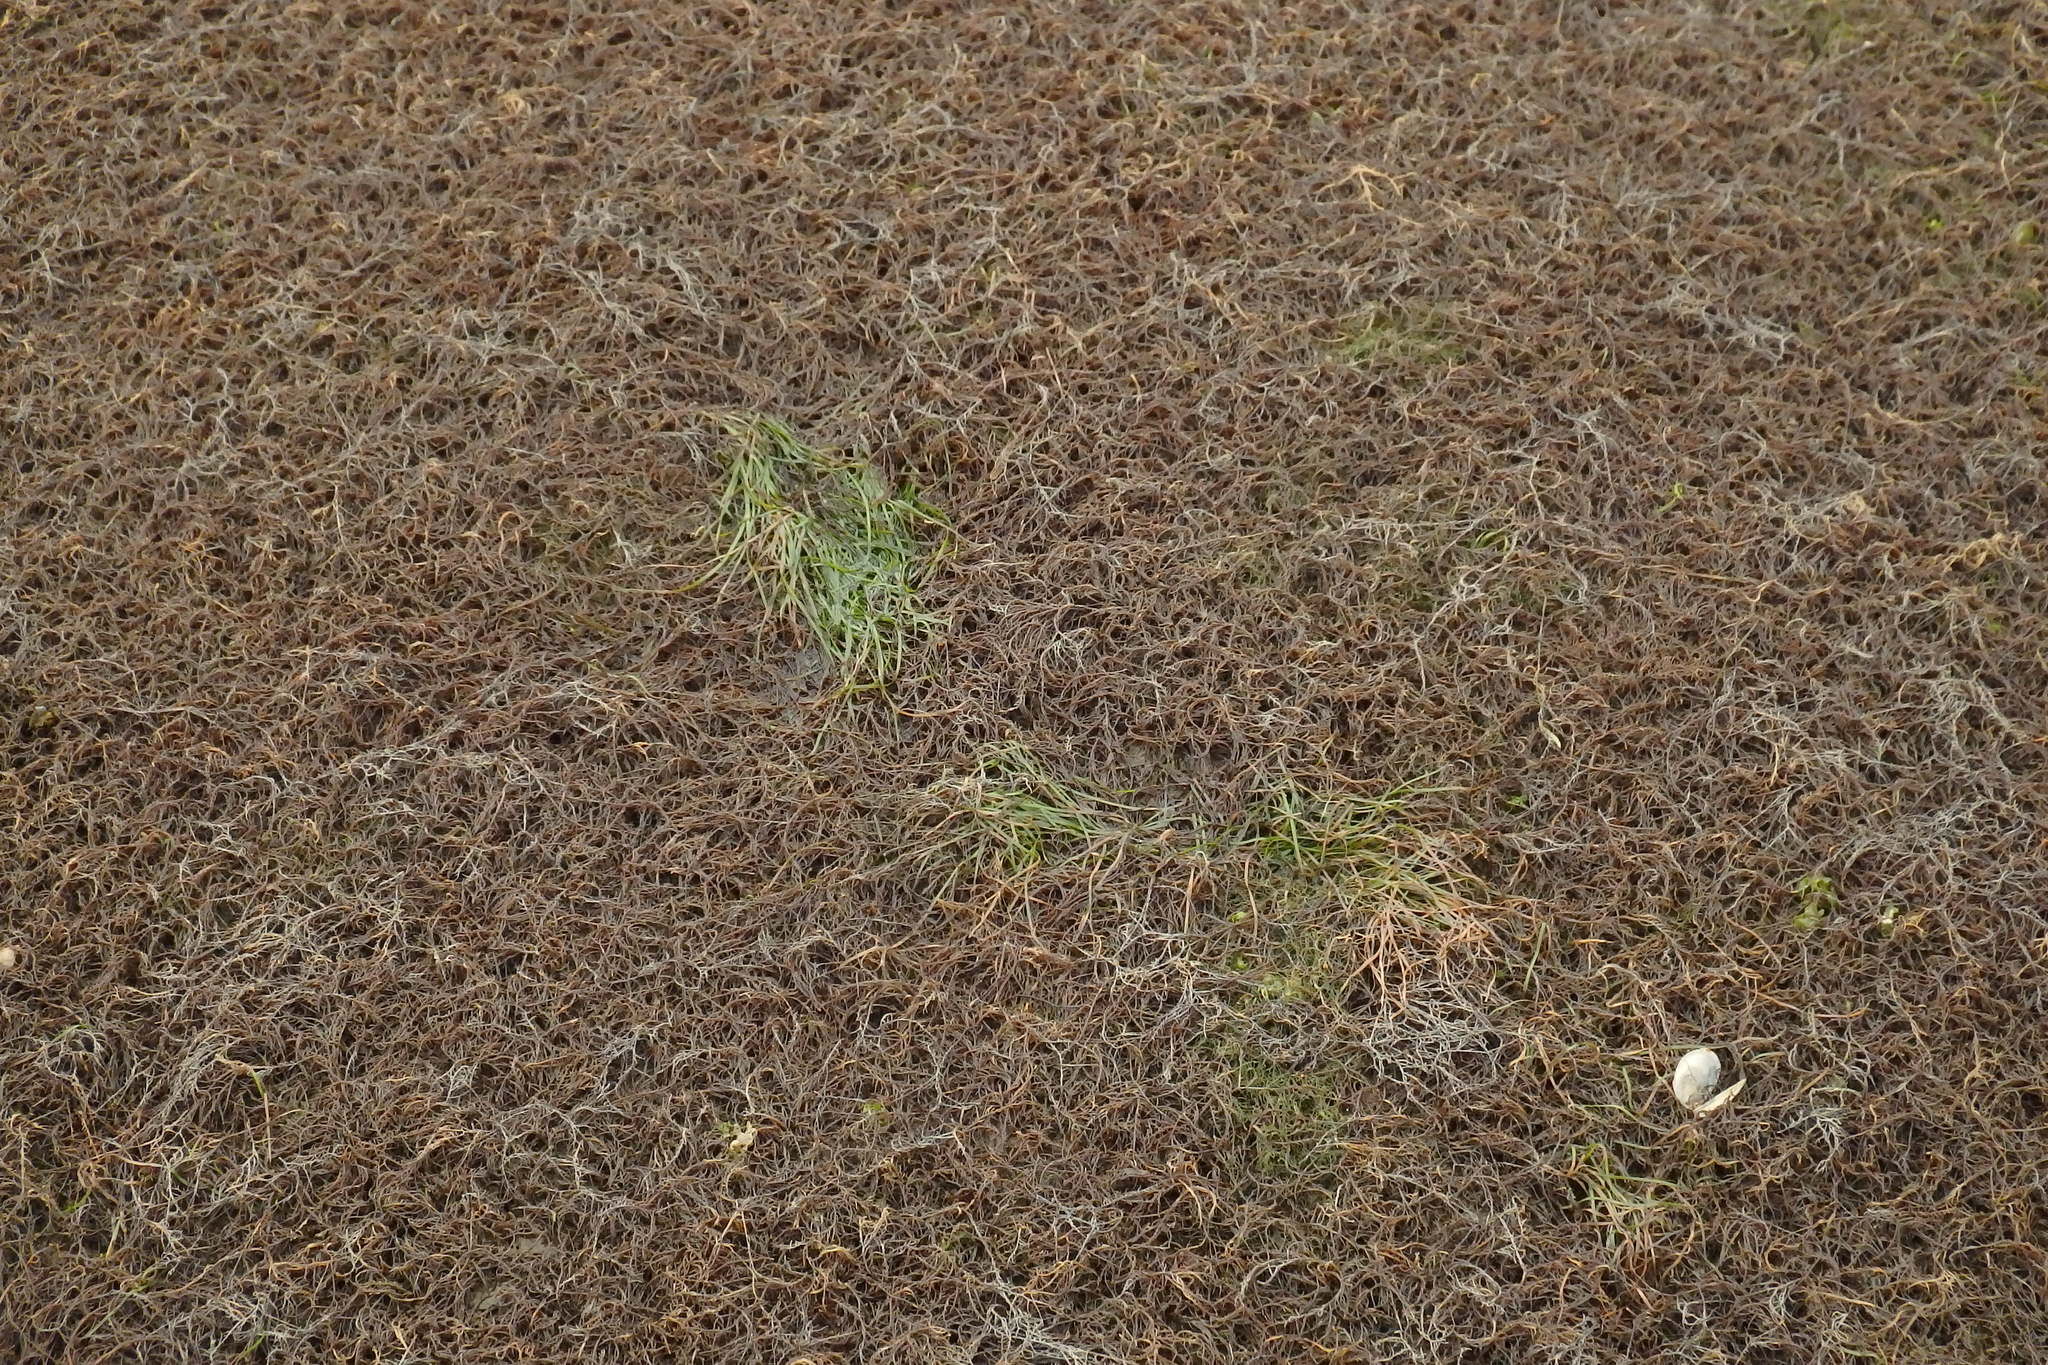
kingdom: Plantae
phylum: Rhodophyta
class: Florideophyceae
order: Gracilariales
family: Gracilariaceae
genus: Gracilaria
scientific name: Gracilaria vermiculophylla
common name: Algae
